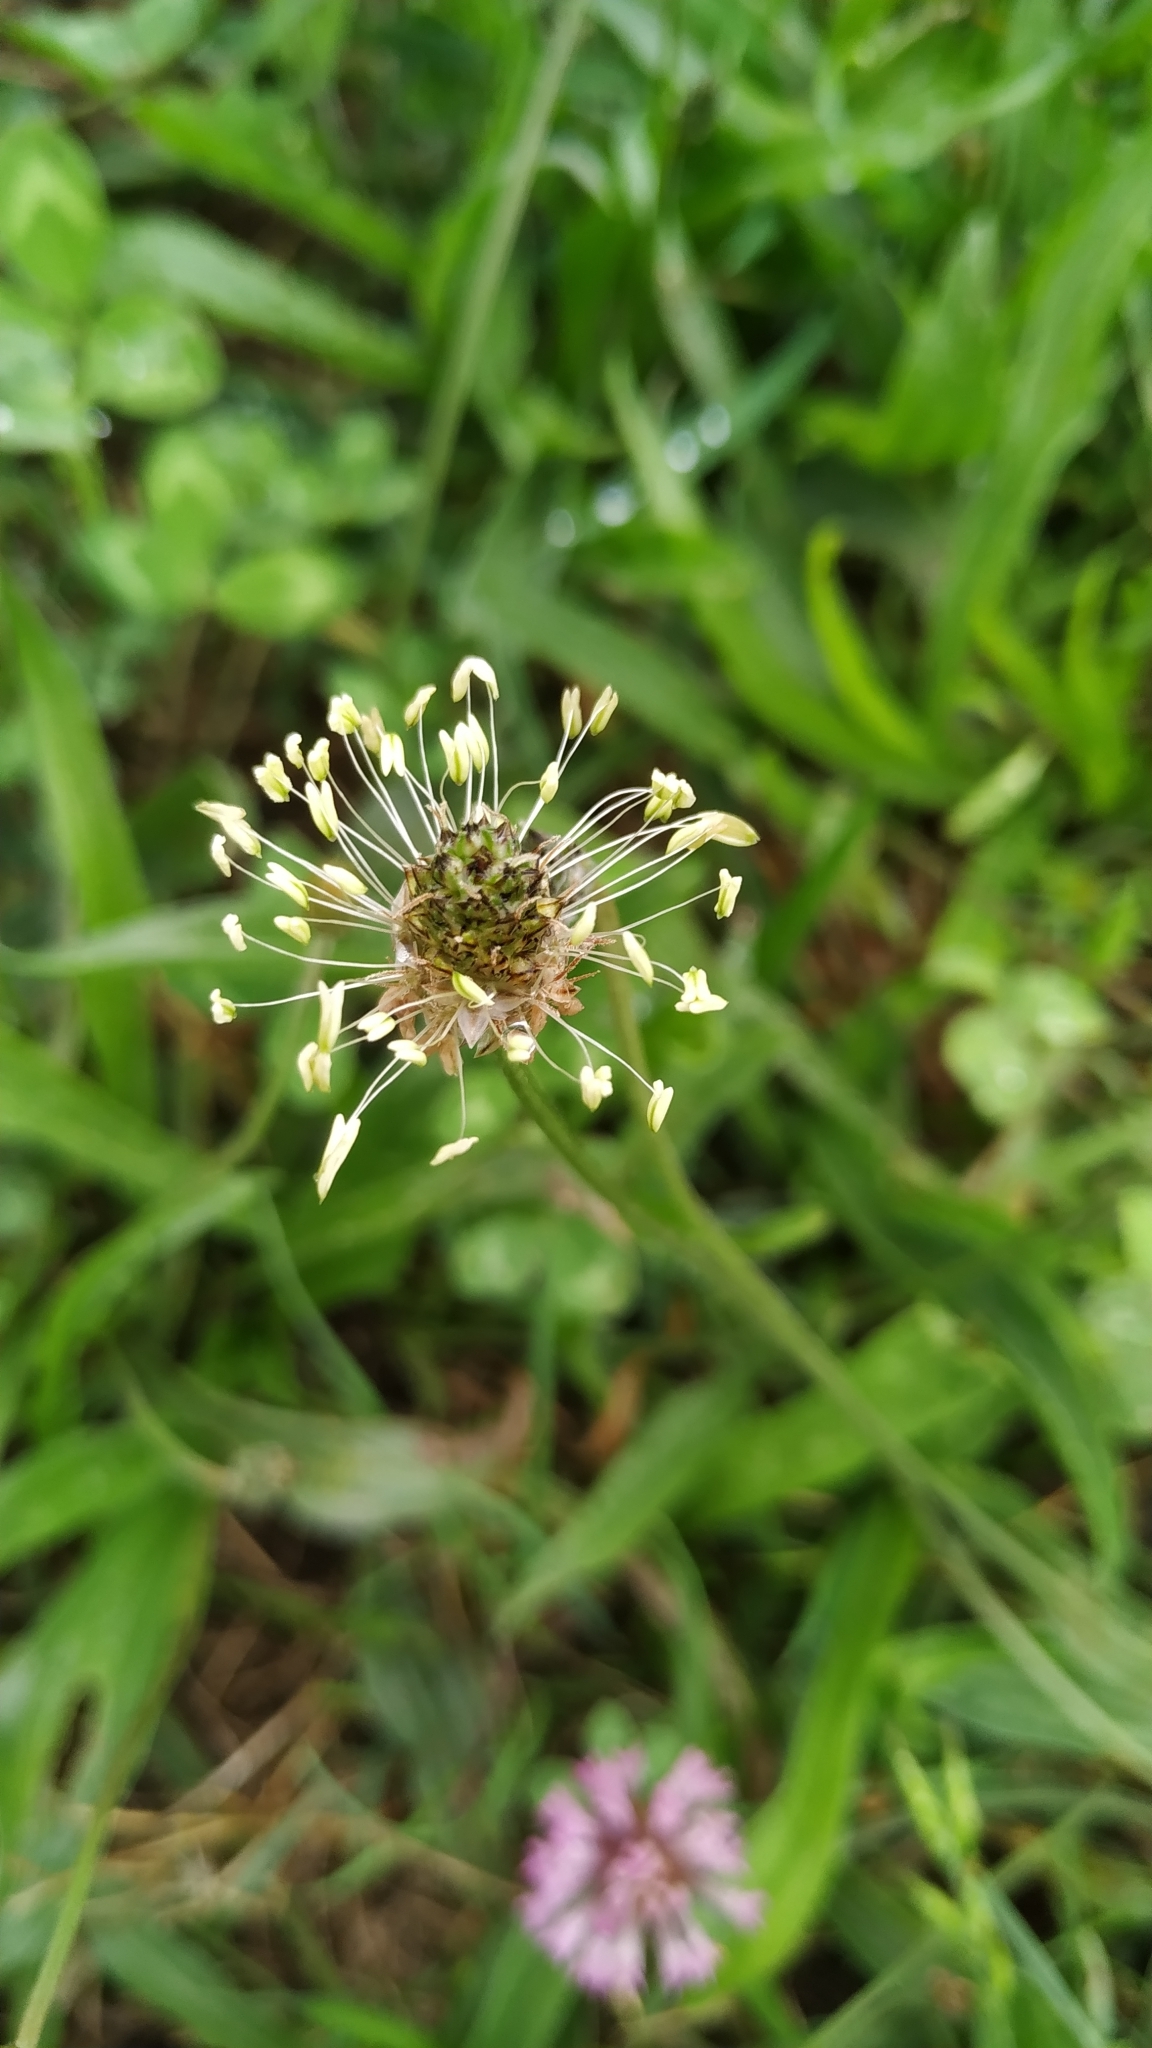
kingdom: Plantae
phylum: Tracheophyta
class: Magnoliopsida
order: Lamiales
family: Plantaginaceae
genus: Plantago
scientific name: Plantago lanceolata
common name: Ribwort plantain
